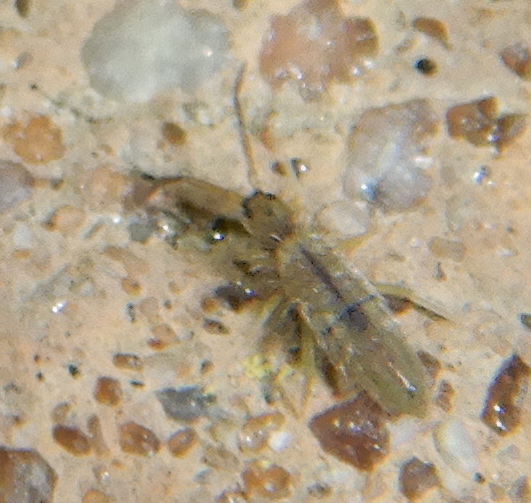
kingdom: Animalia
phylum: Arthropoda
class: Collembola
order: Entomobryomorpha
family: Entomobryidae
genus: Entomobrya
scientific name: Entomobrya unostrigata
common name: Springtail
